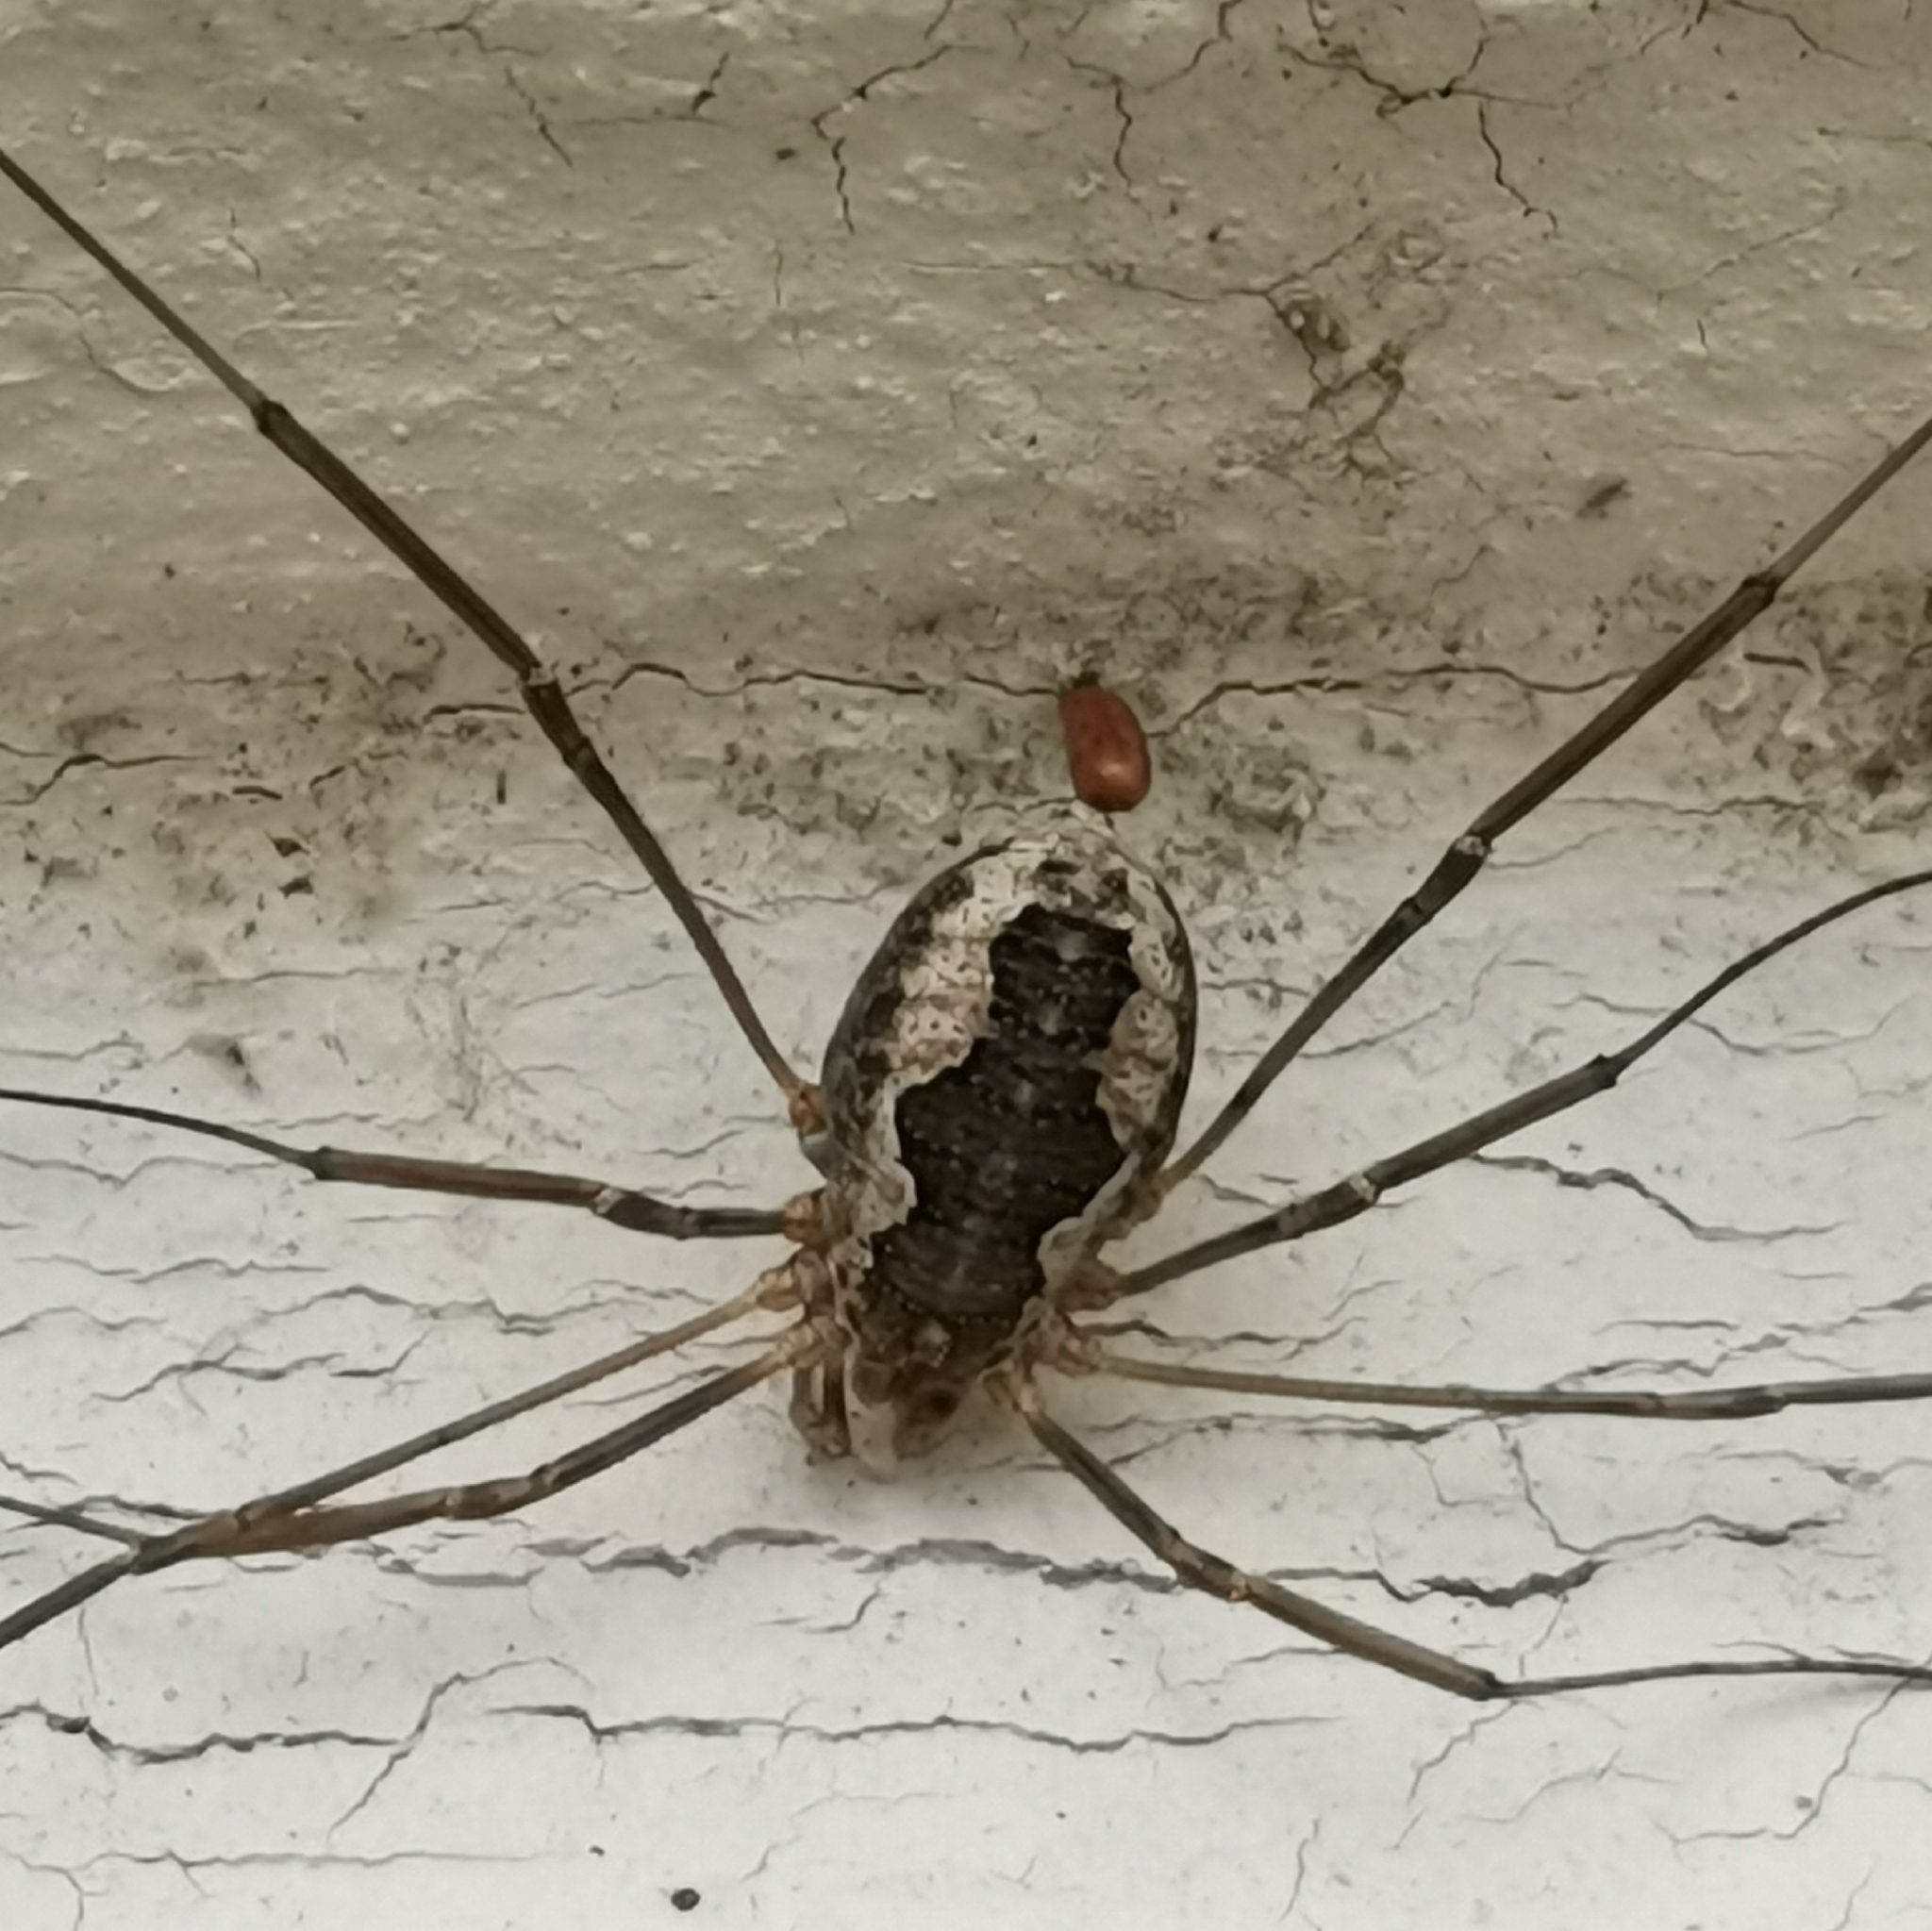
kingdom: Animalia
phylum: Arthropoda
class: Arachnida
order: Opiliones
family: Phalangiidae
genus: Phalangium
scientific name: Phalangium opilio
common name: Daddy longleg
